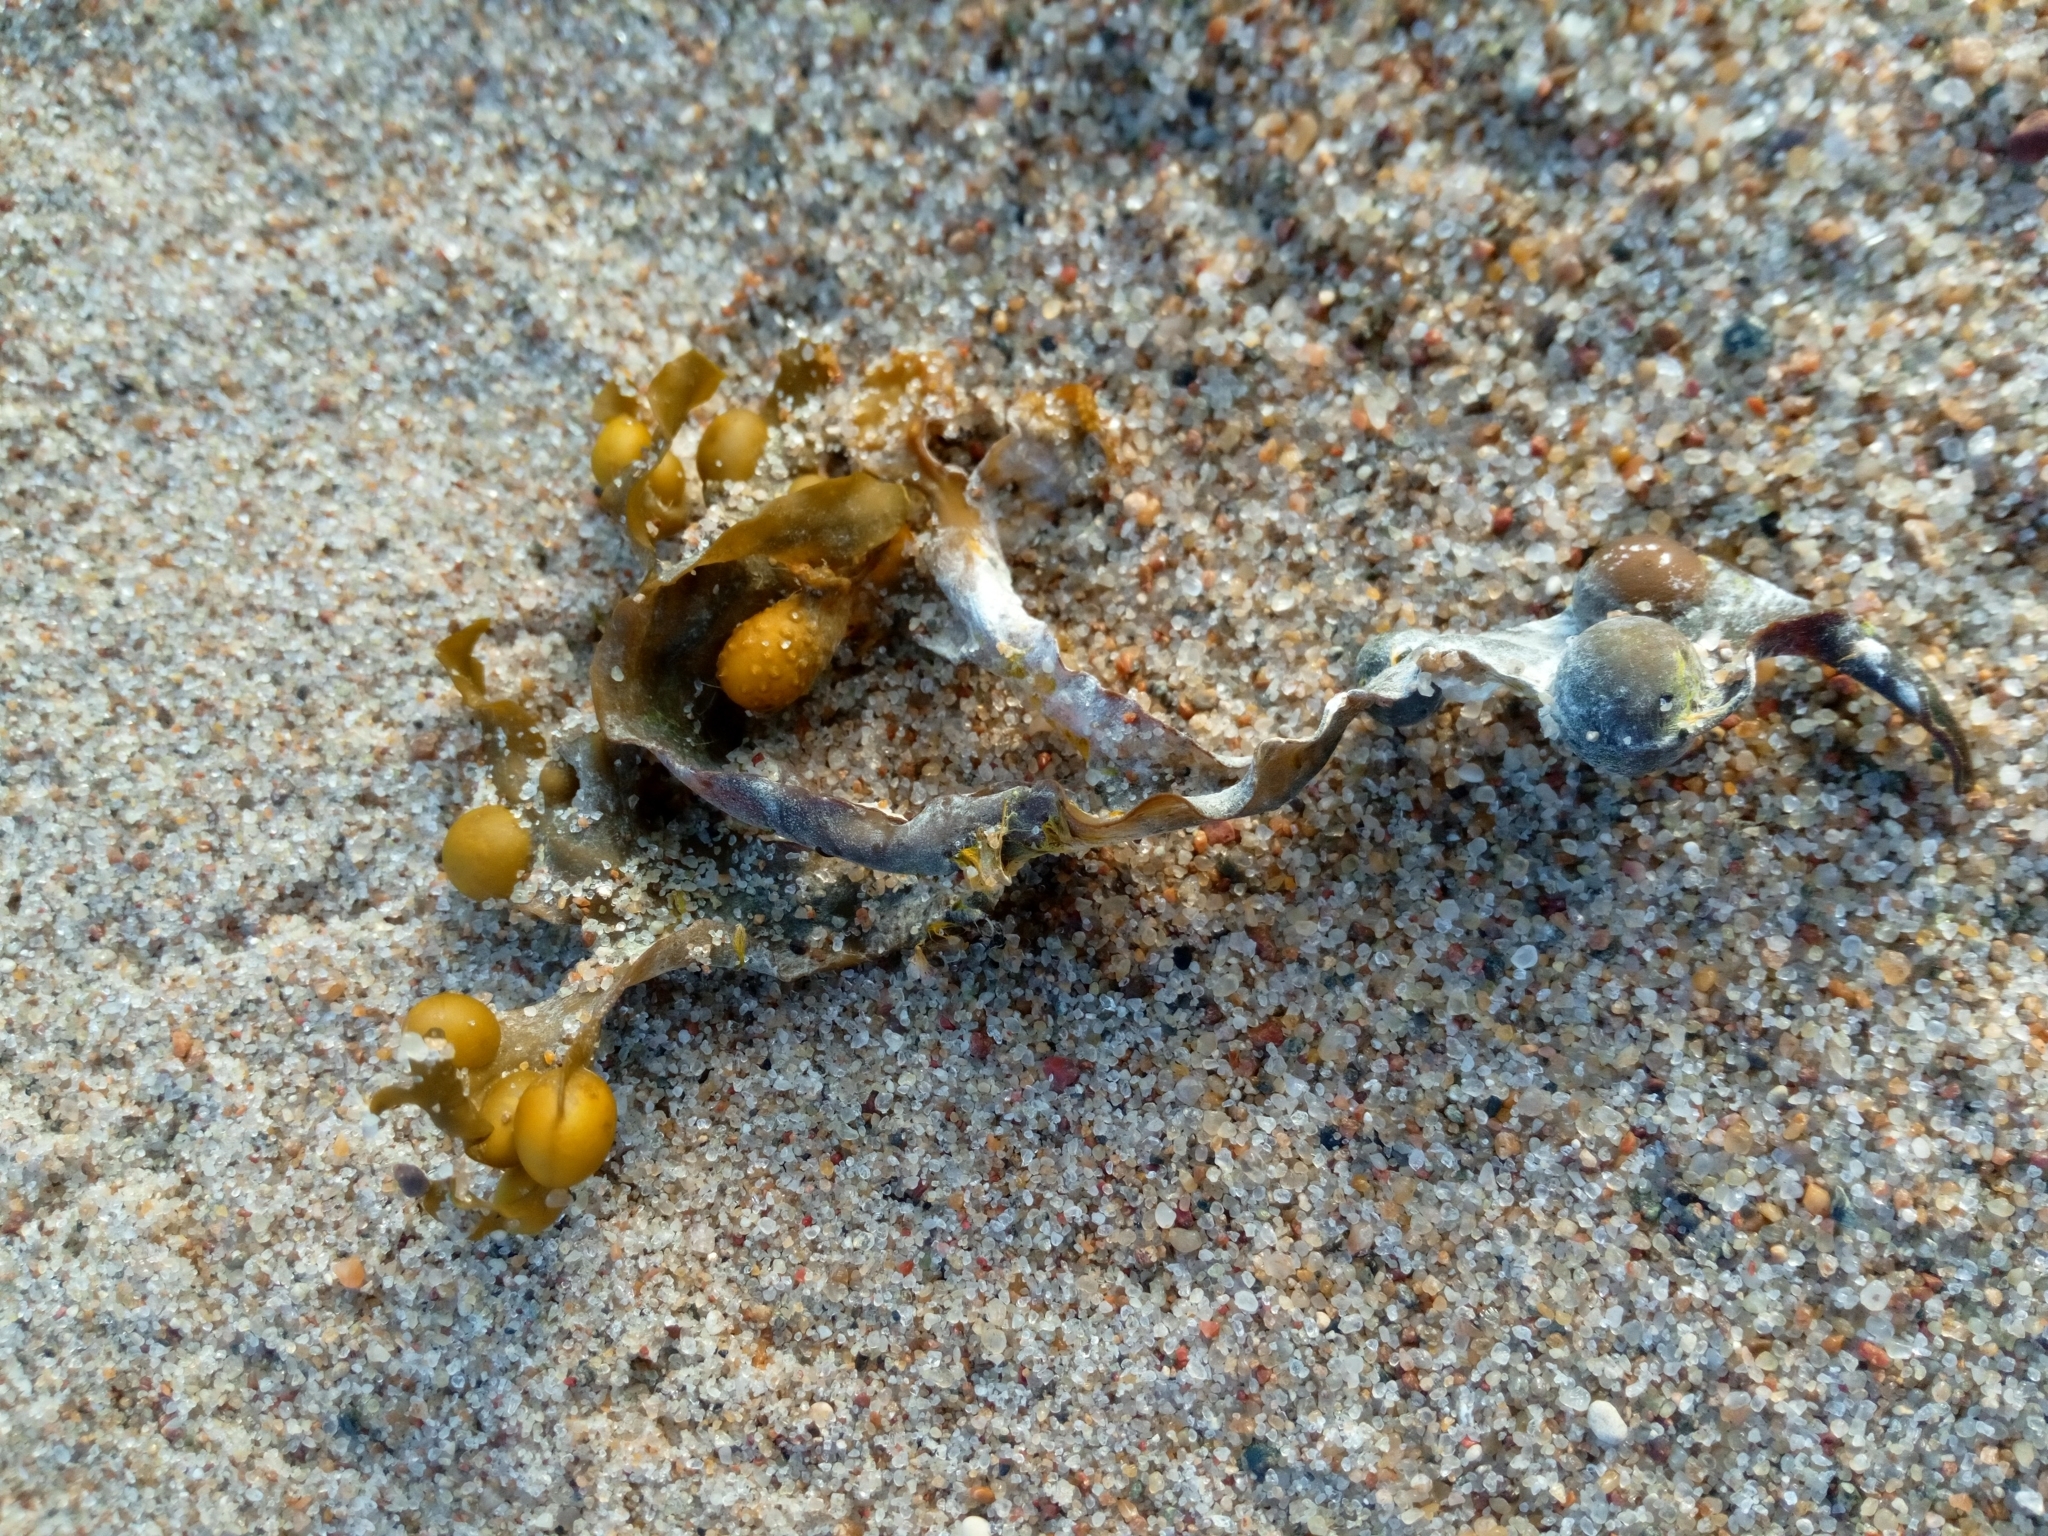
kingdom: Chromista
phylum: Ochrophyta
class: Phaeophyceae
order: Fucales
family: Fucaceae
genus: Fucus
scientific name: Fucus vesiculosus
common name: Bladder wrack
